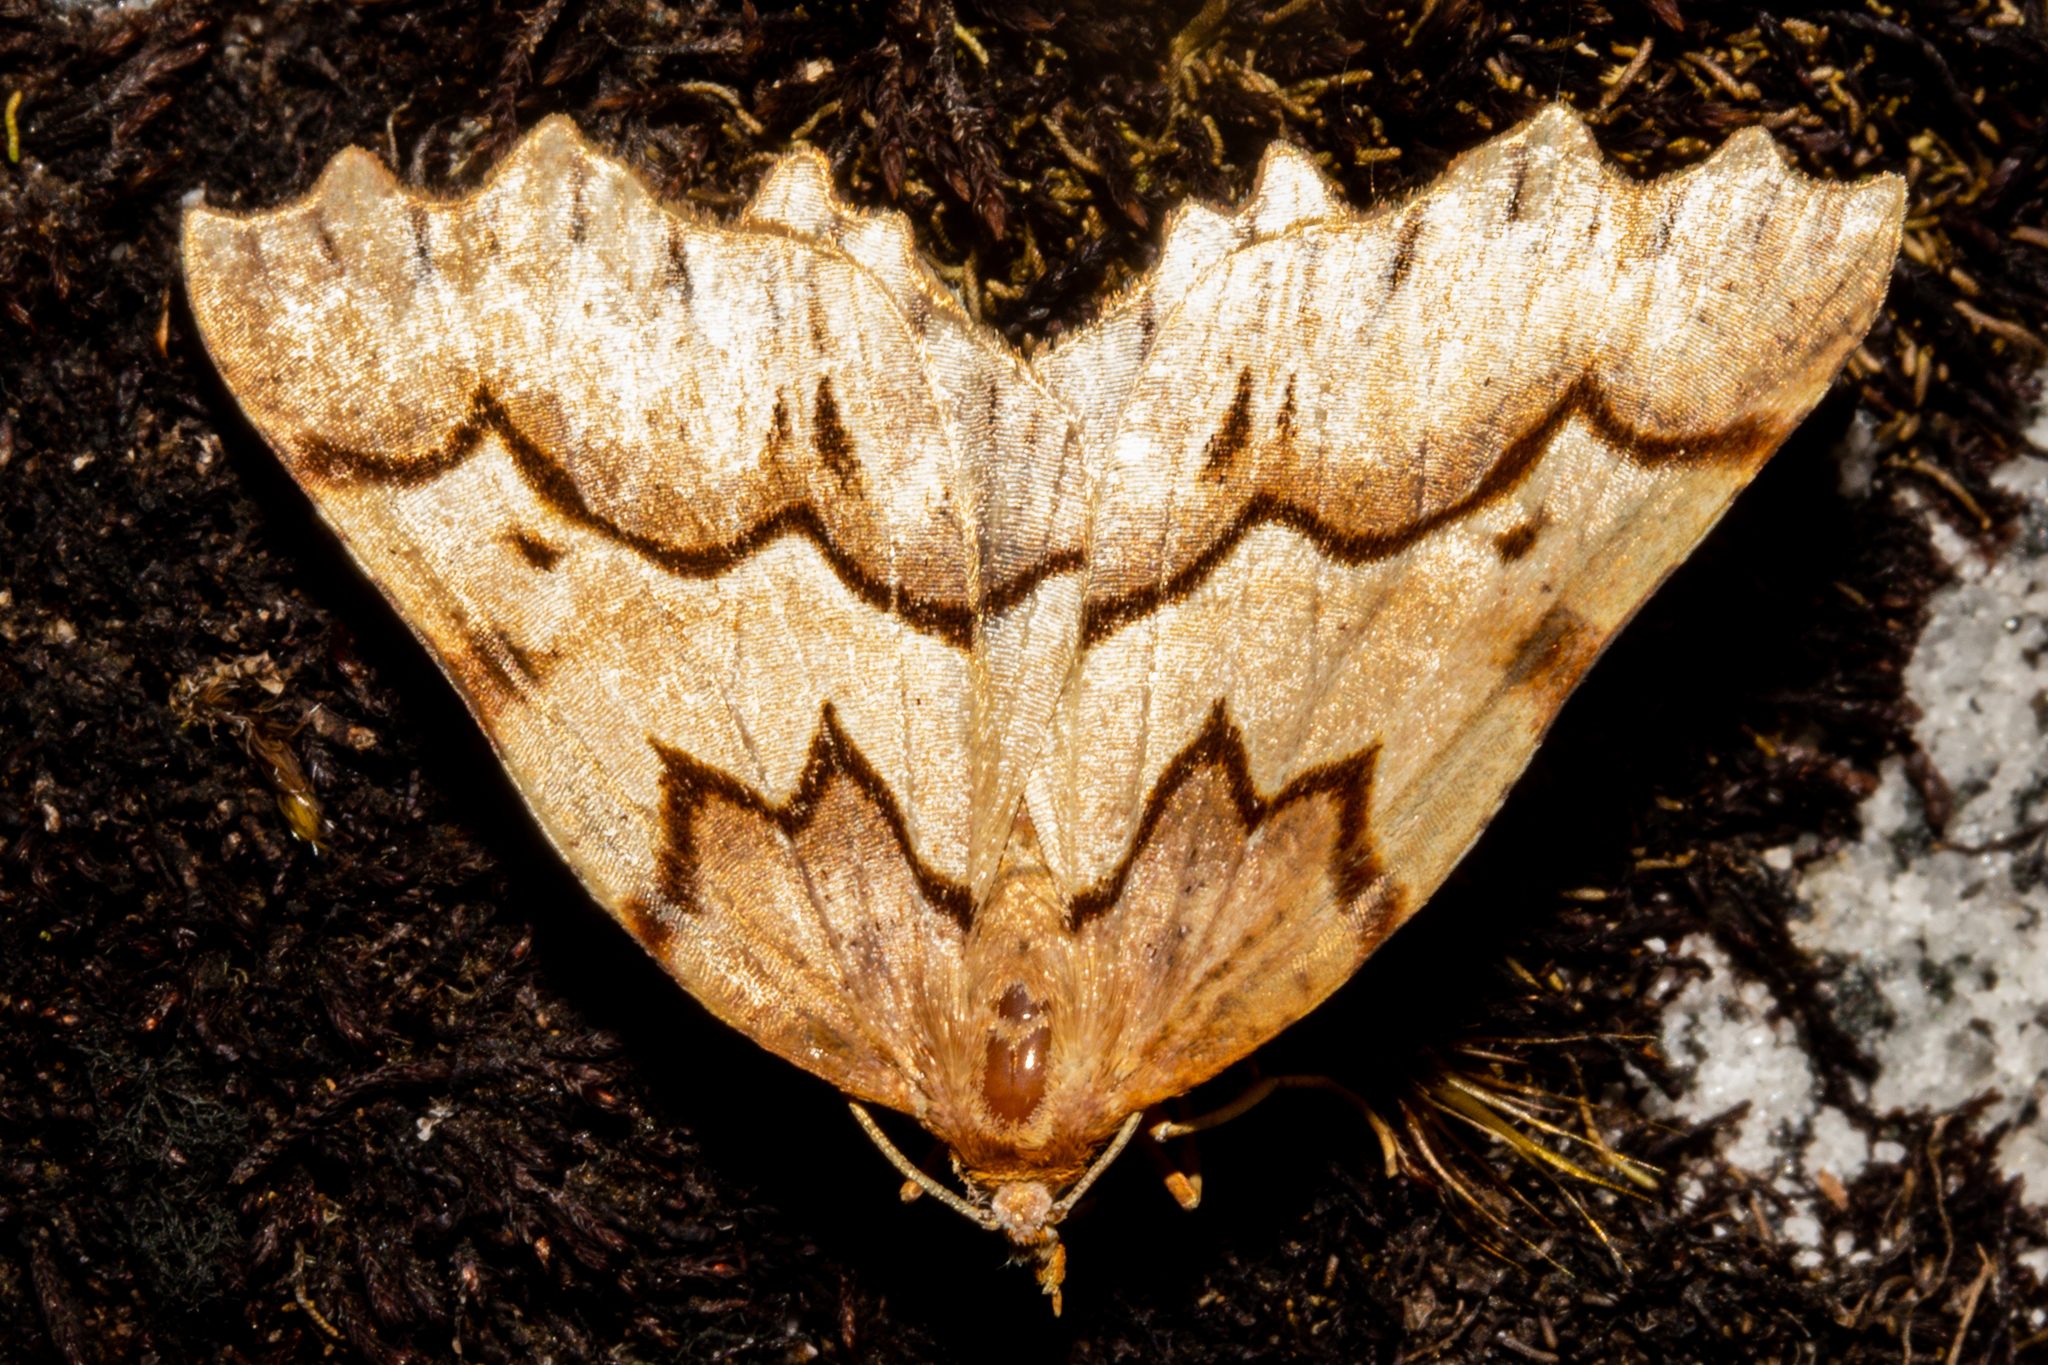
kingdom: Animalia
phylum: Arthropoda
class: Insecta
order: Lepidoptera
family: Geometridae
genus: Ischalis
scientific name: Ischalis fortinata
